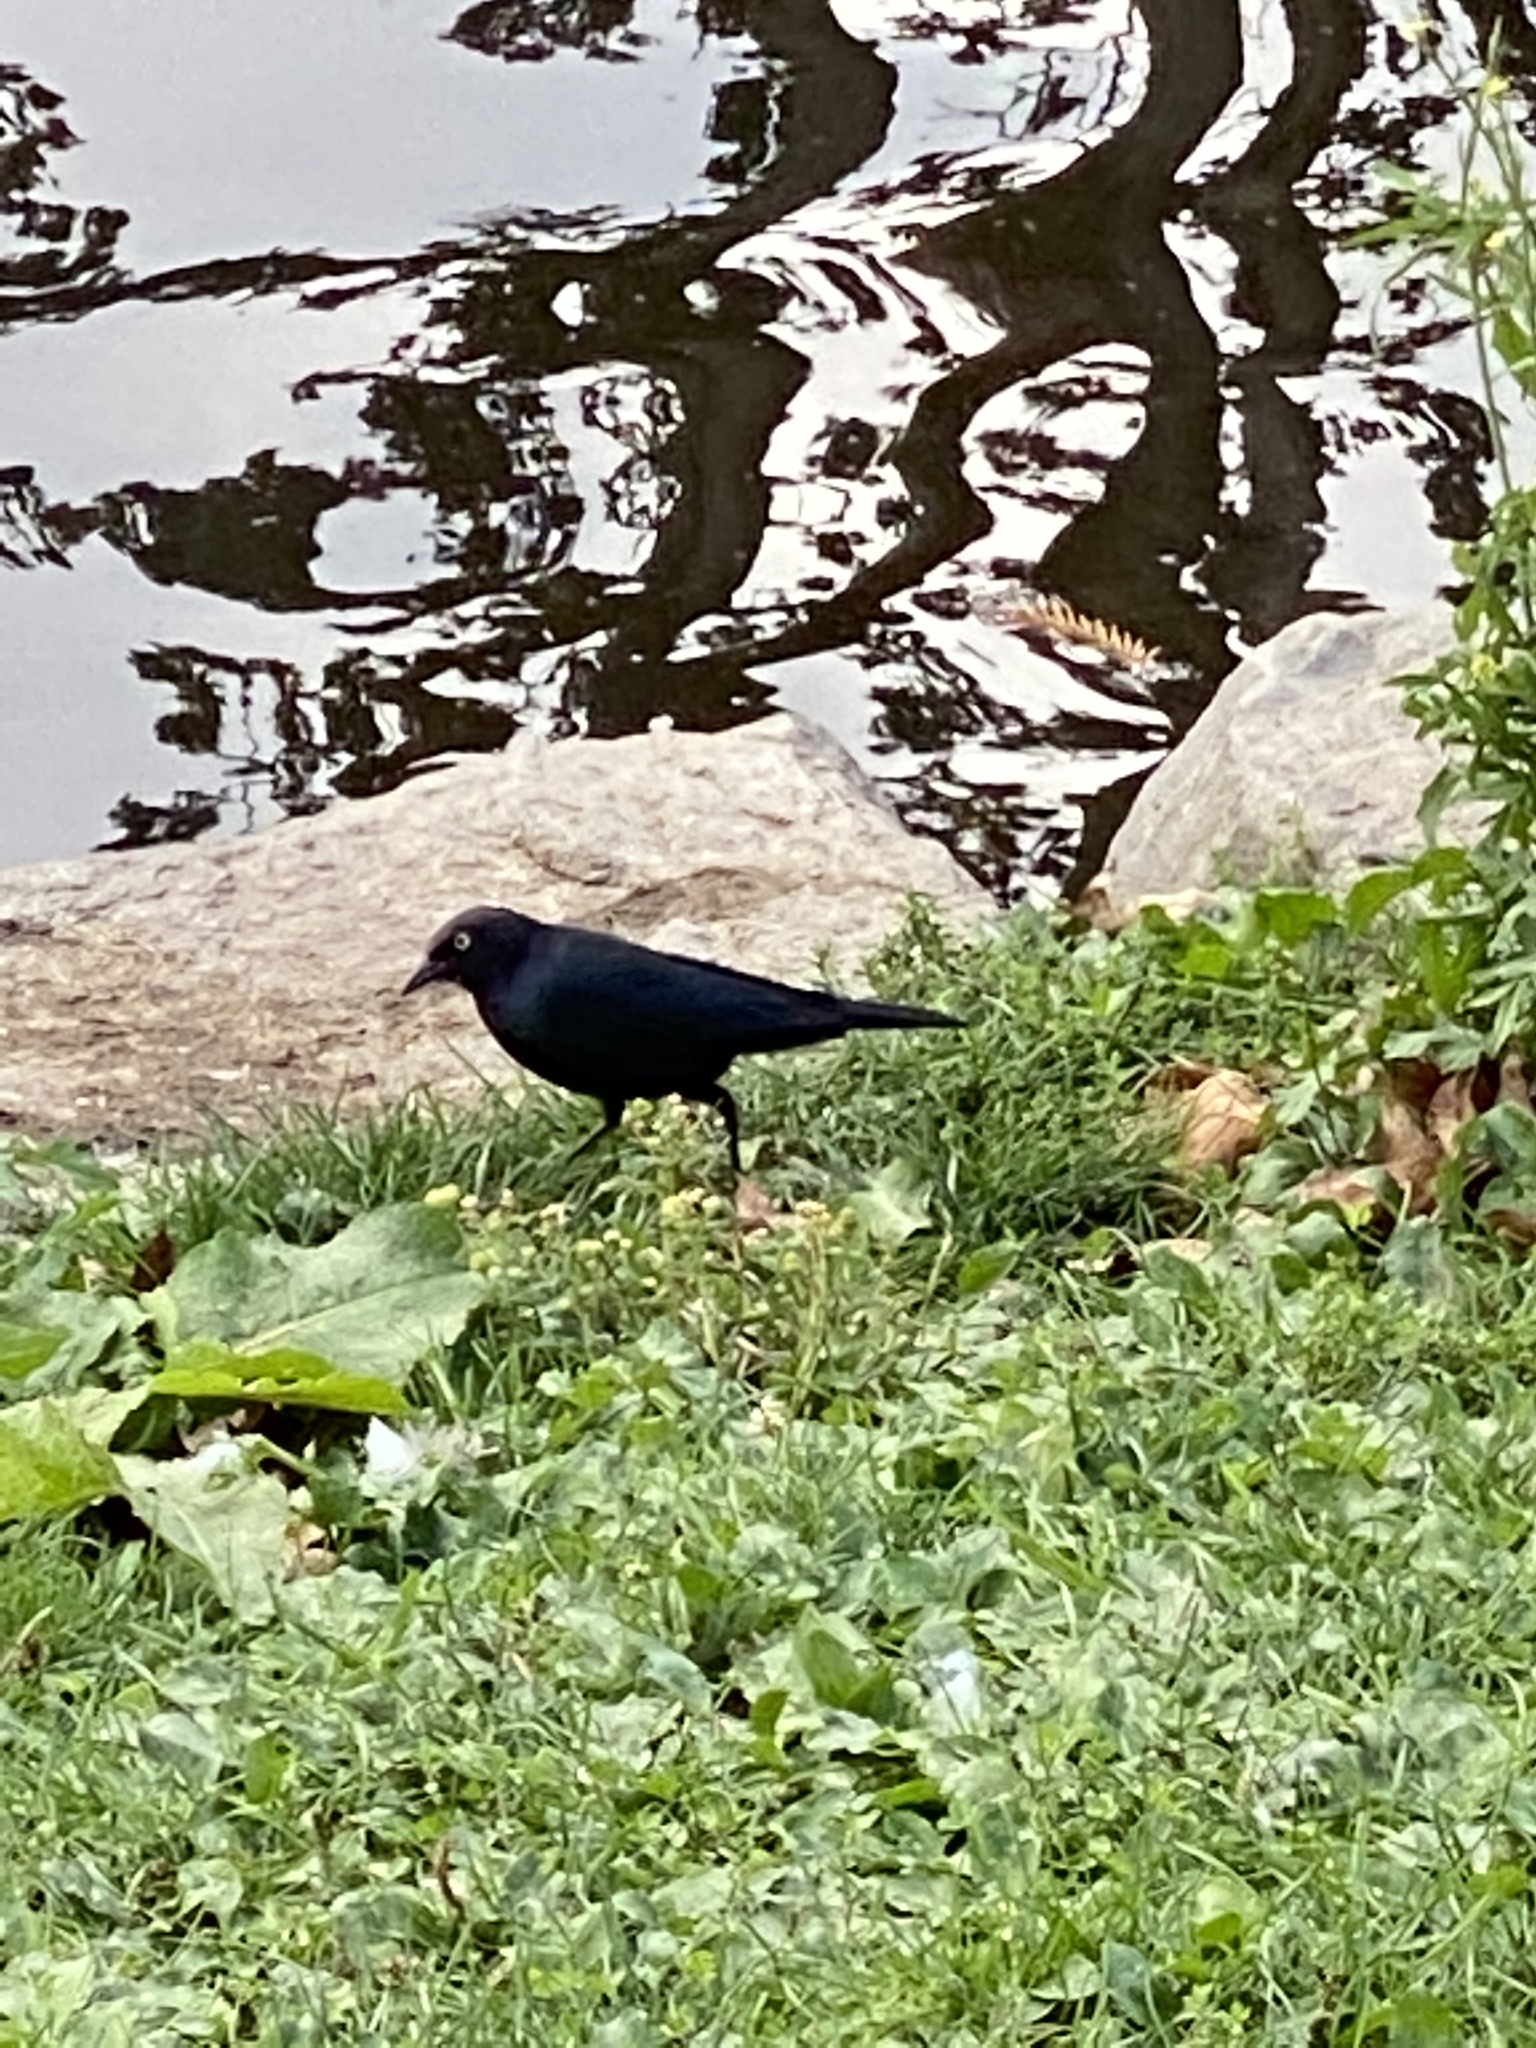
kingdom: Animalia
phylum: Chordata
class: Aves
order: Passeriformes
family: Icteridae
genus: Euphagus
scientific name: Euphagus cyanocephalus
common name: Brewer's blackbird
